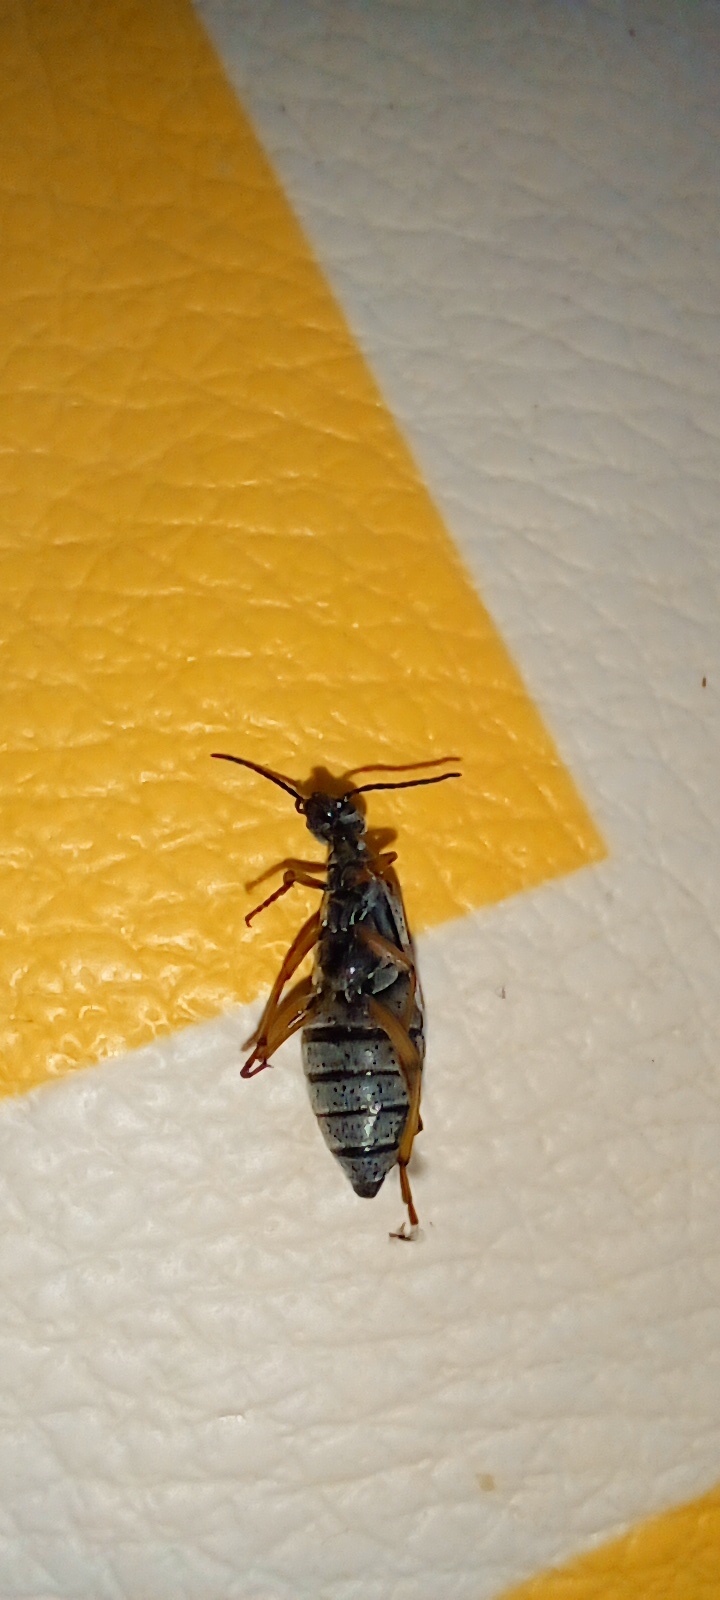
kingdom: Animalia
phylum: Arthropoda
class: Insecta
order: Coleoptera
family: Meloidae
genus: Epicauta
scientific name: Epicauta
